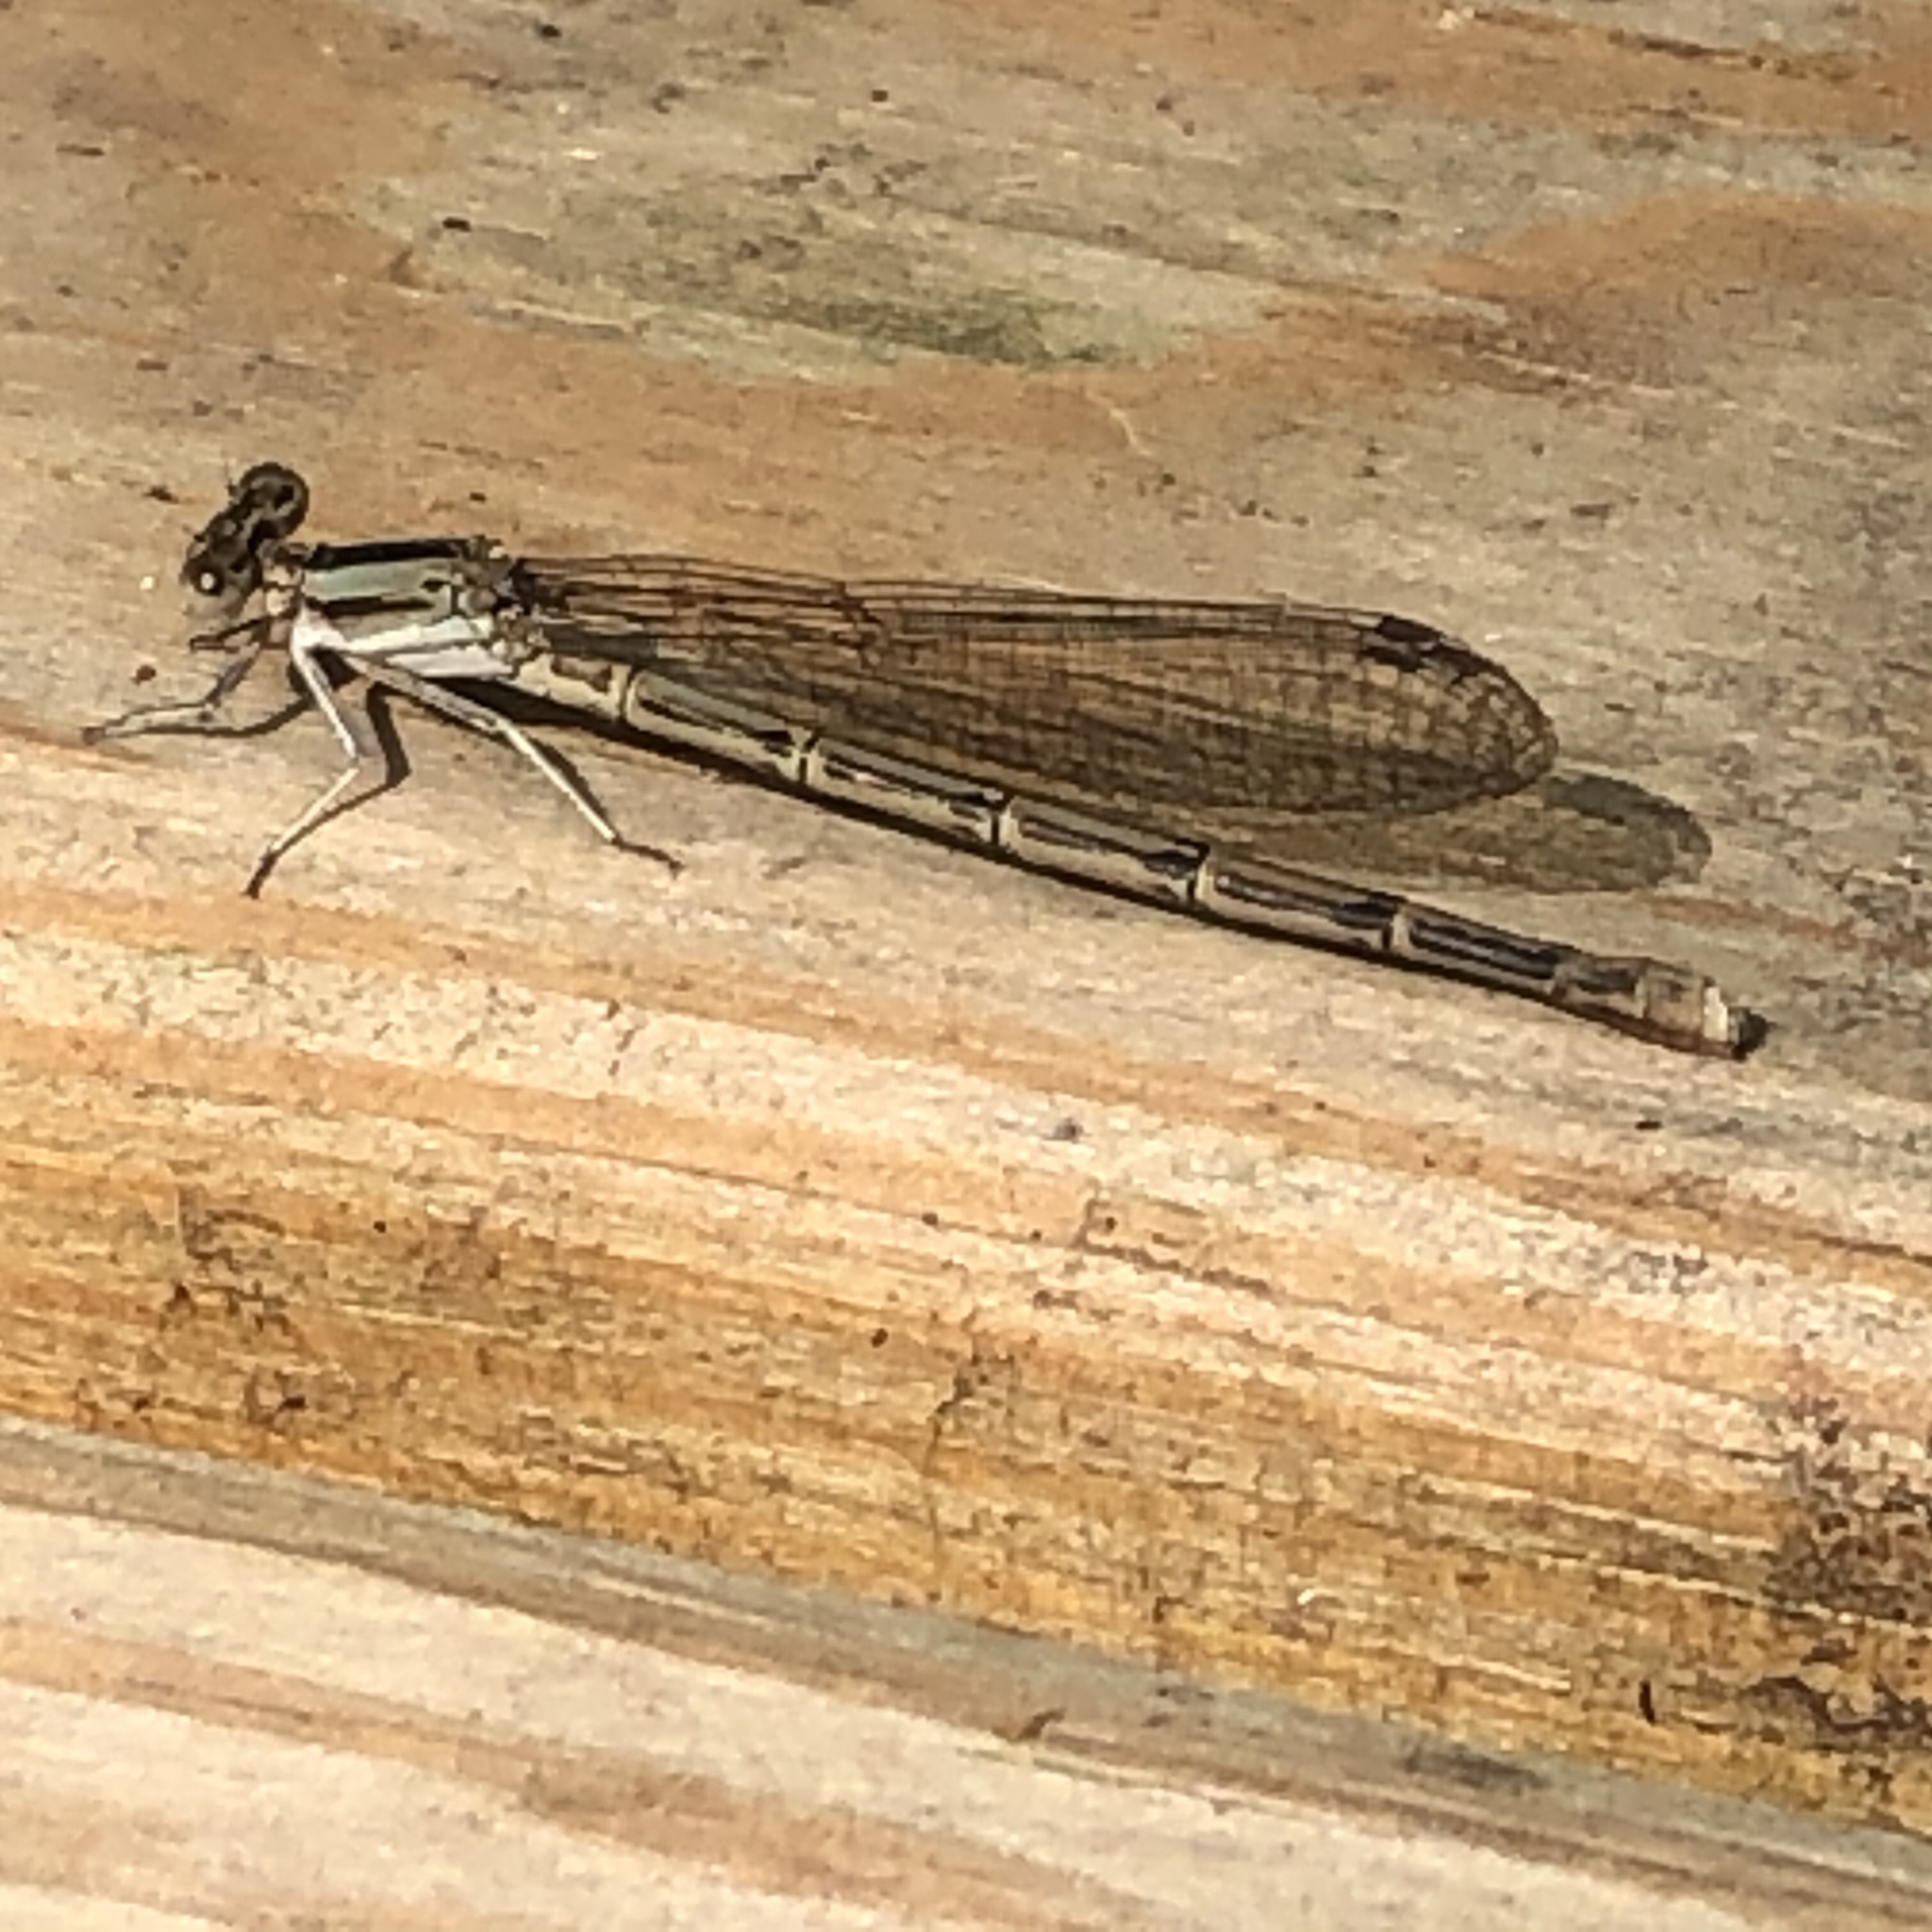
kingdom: Animalia
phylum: Arthropoda
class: Insecta
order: Odonata
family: Coenagrionidae
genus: Argia
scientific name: Argia fumipennis
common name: Variable dancer
